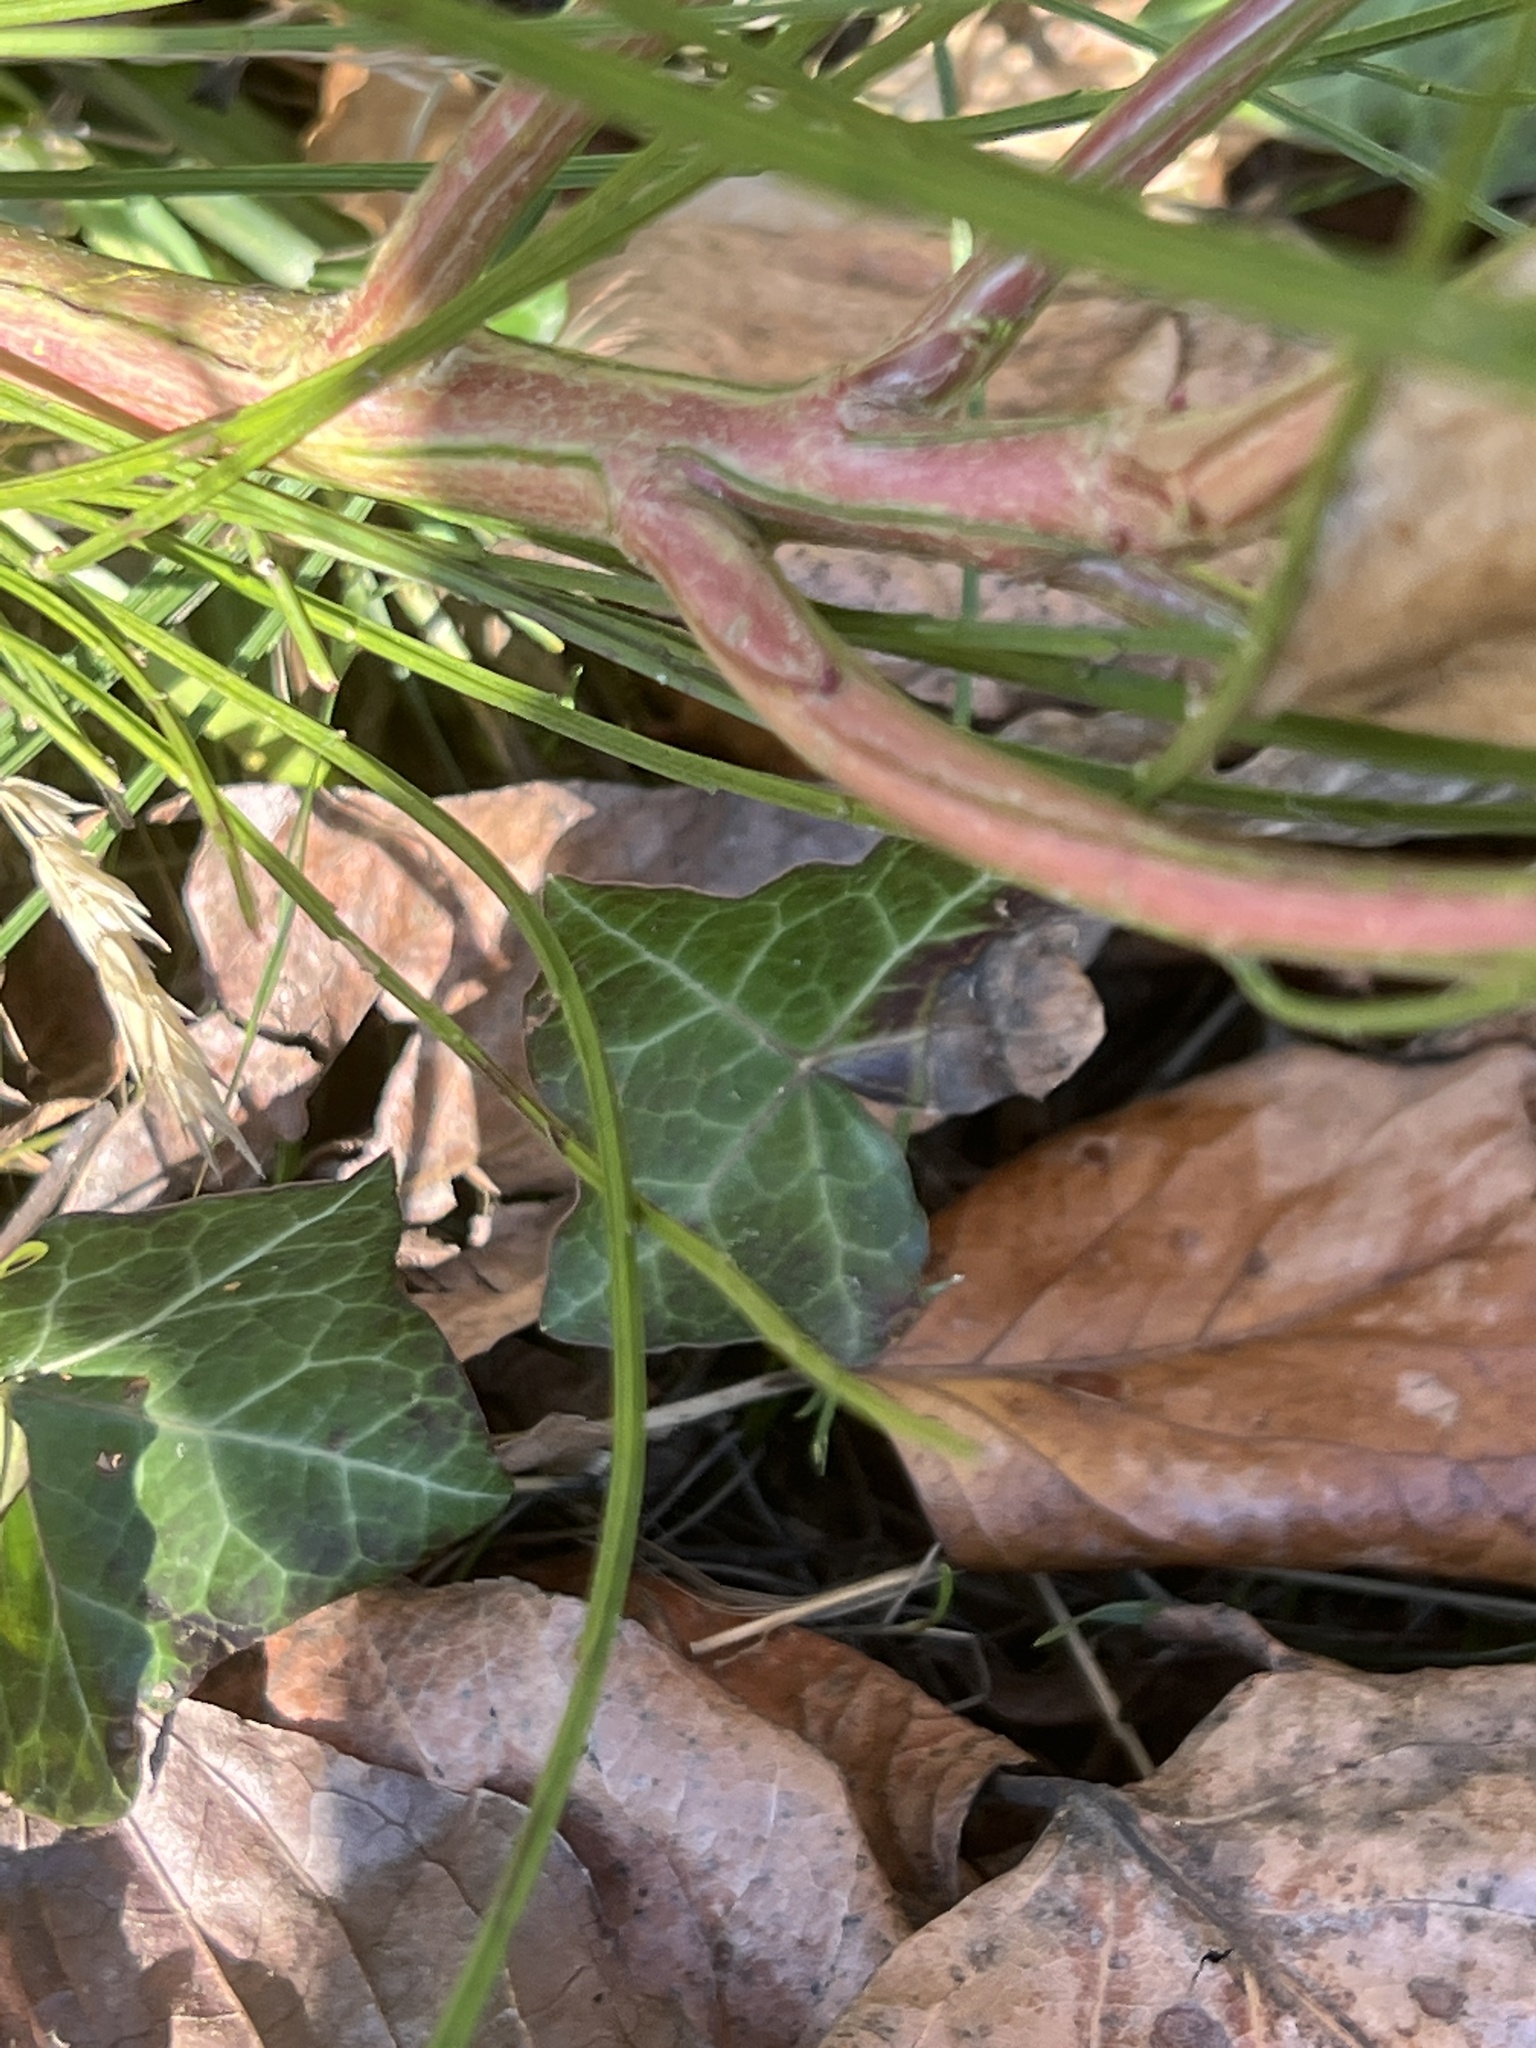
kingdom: Plantae
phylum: Tracheophyta
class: Magnoliopsida
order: Fabales
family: Fabaceae
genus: Cytisus
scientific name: Cytisus scoparius
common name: Scotch broom
